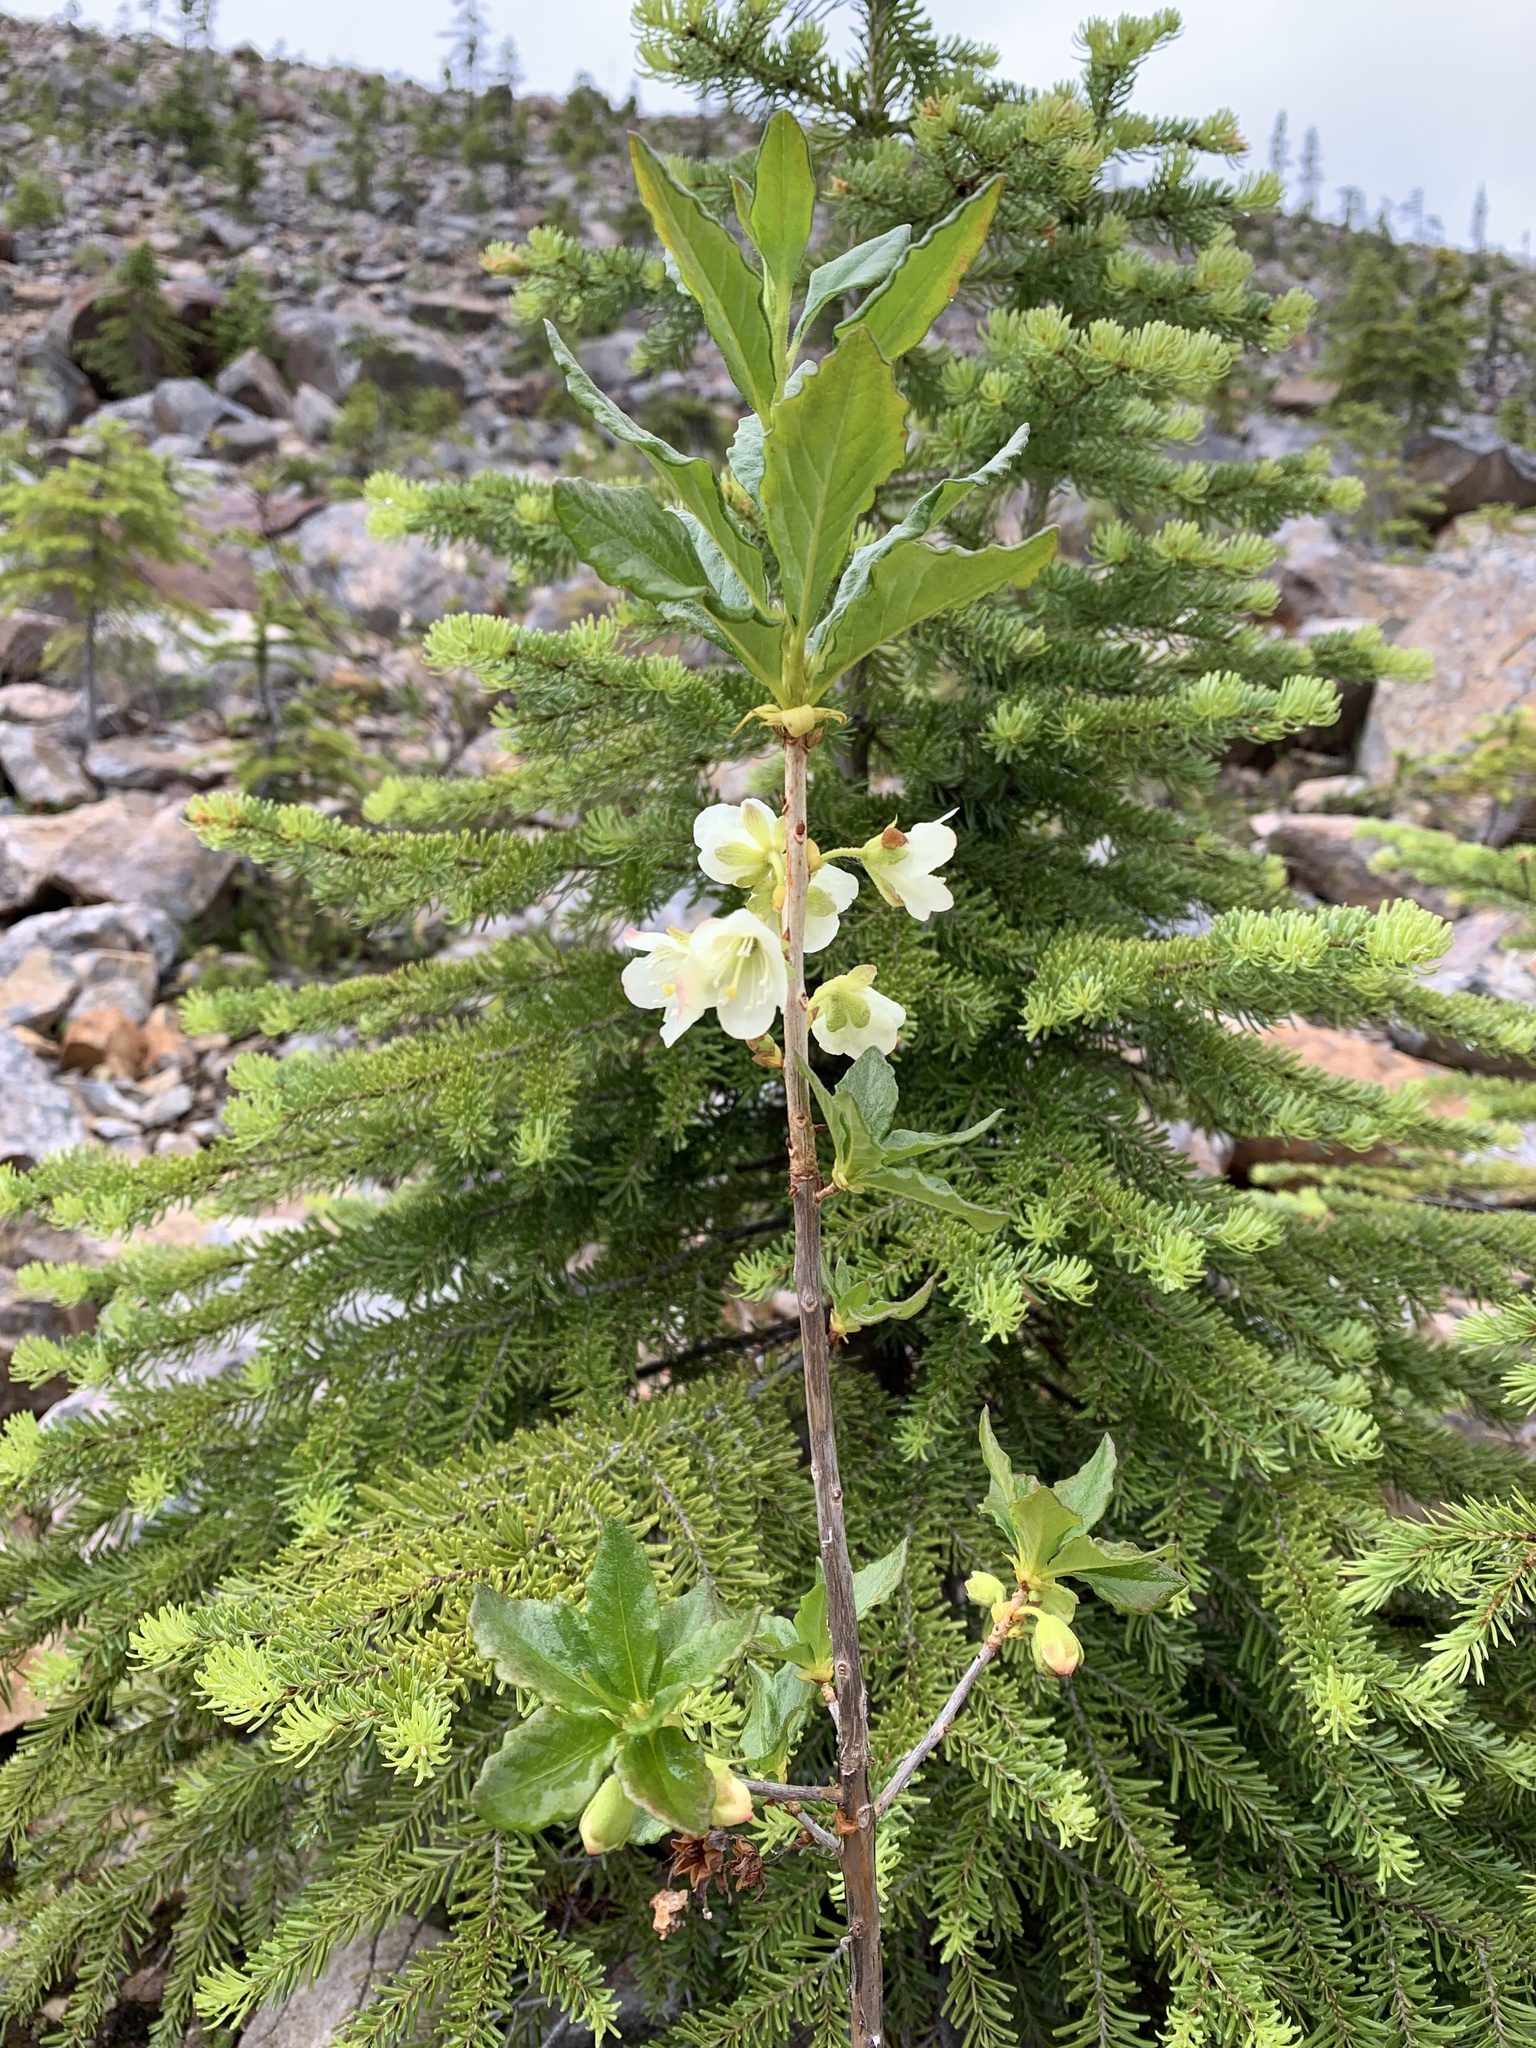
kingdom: Plantae
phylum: Tracheophyta
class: Magnoliopsida
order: Ericales
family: Ericaceae
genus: Rhododendron
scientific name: Rhododendron albiflorum
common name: White rhododendron
